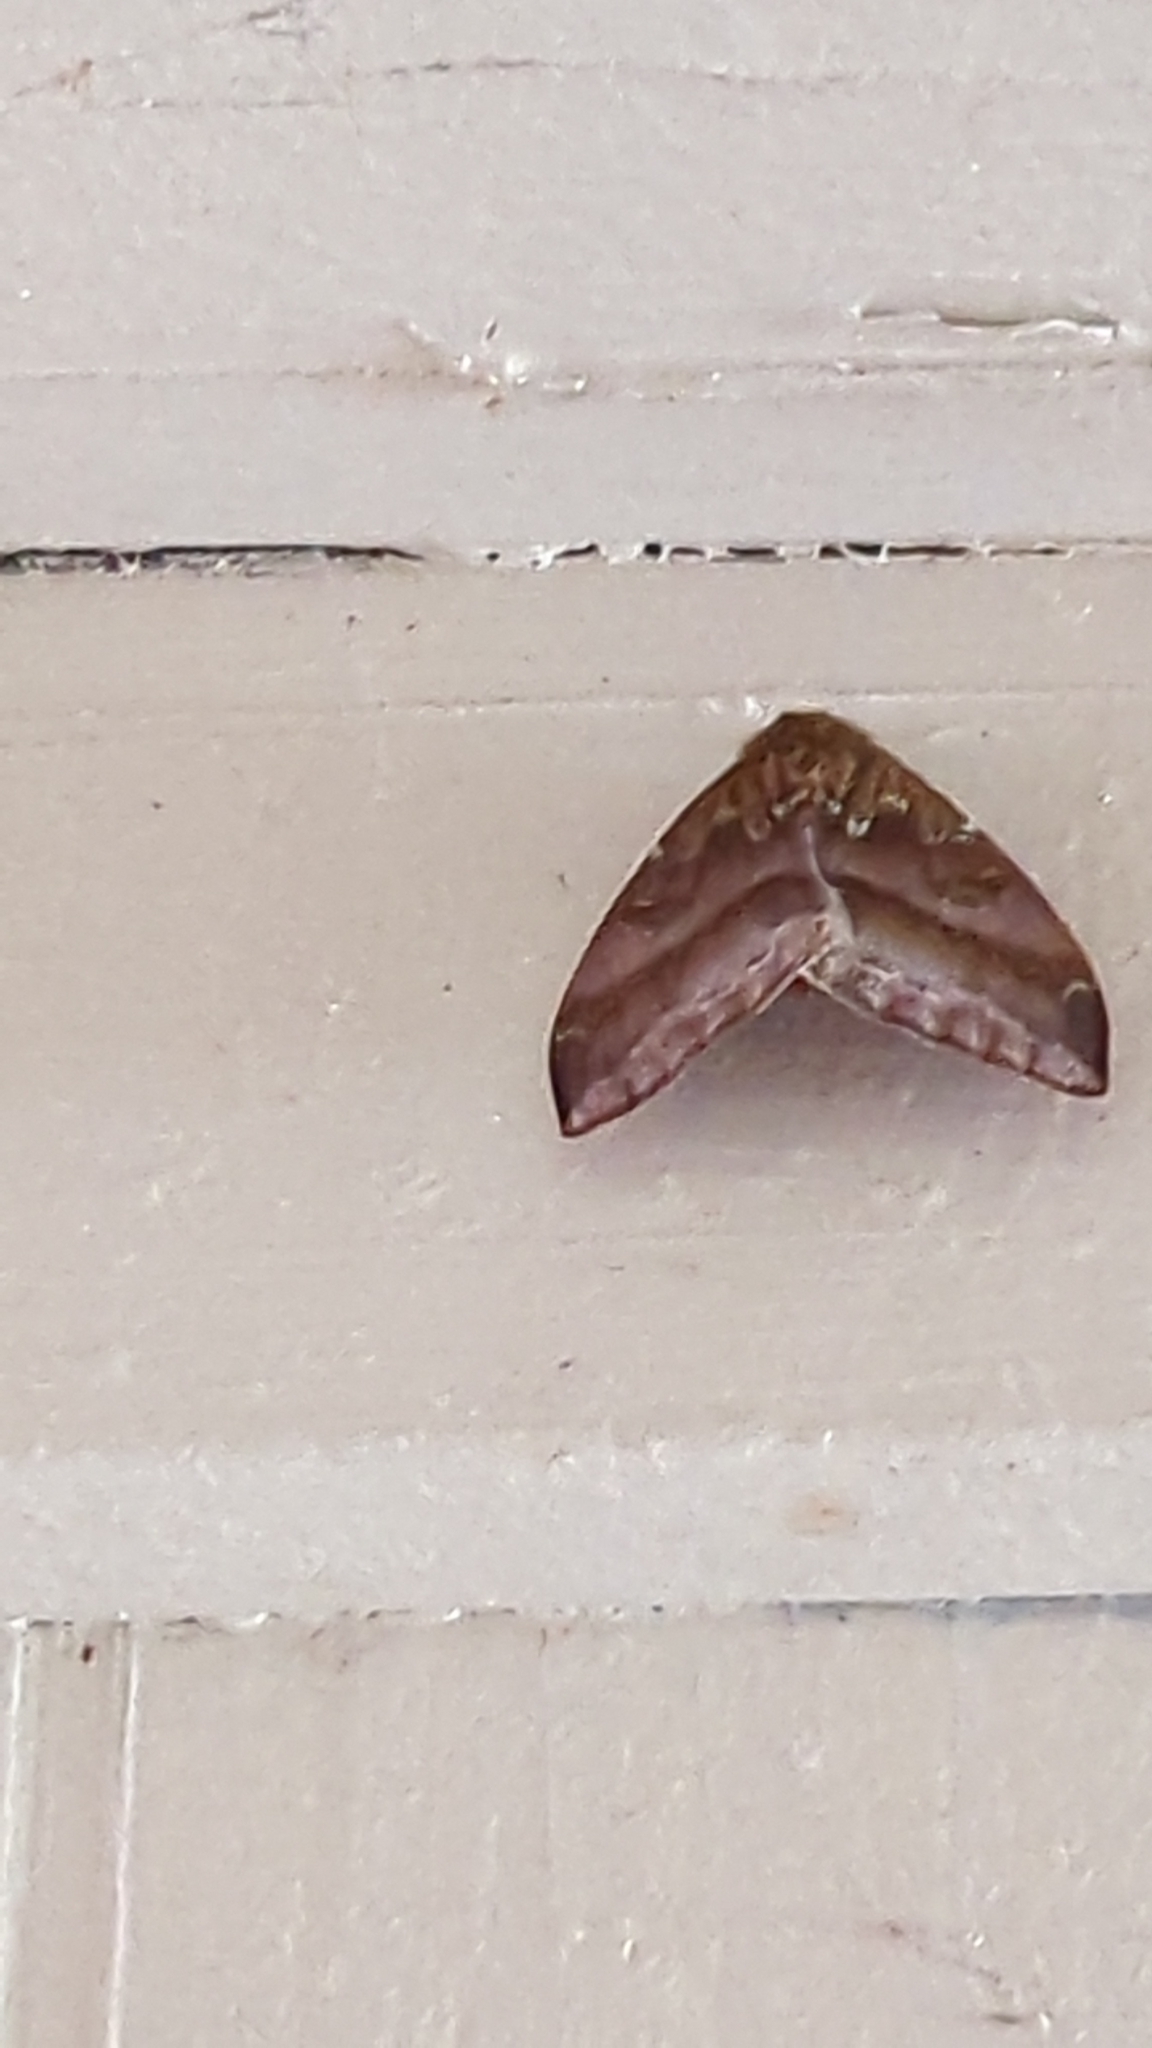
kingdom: Animalia
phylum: Arthropoda
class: Insecta
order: Lepidoptera
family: Saturniidae
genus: Automeris
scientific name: Automeris io
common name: Io moth
